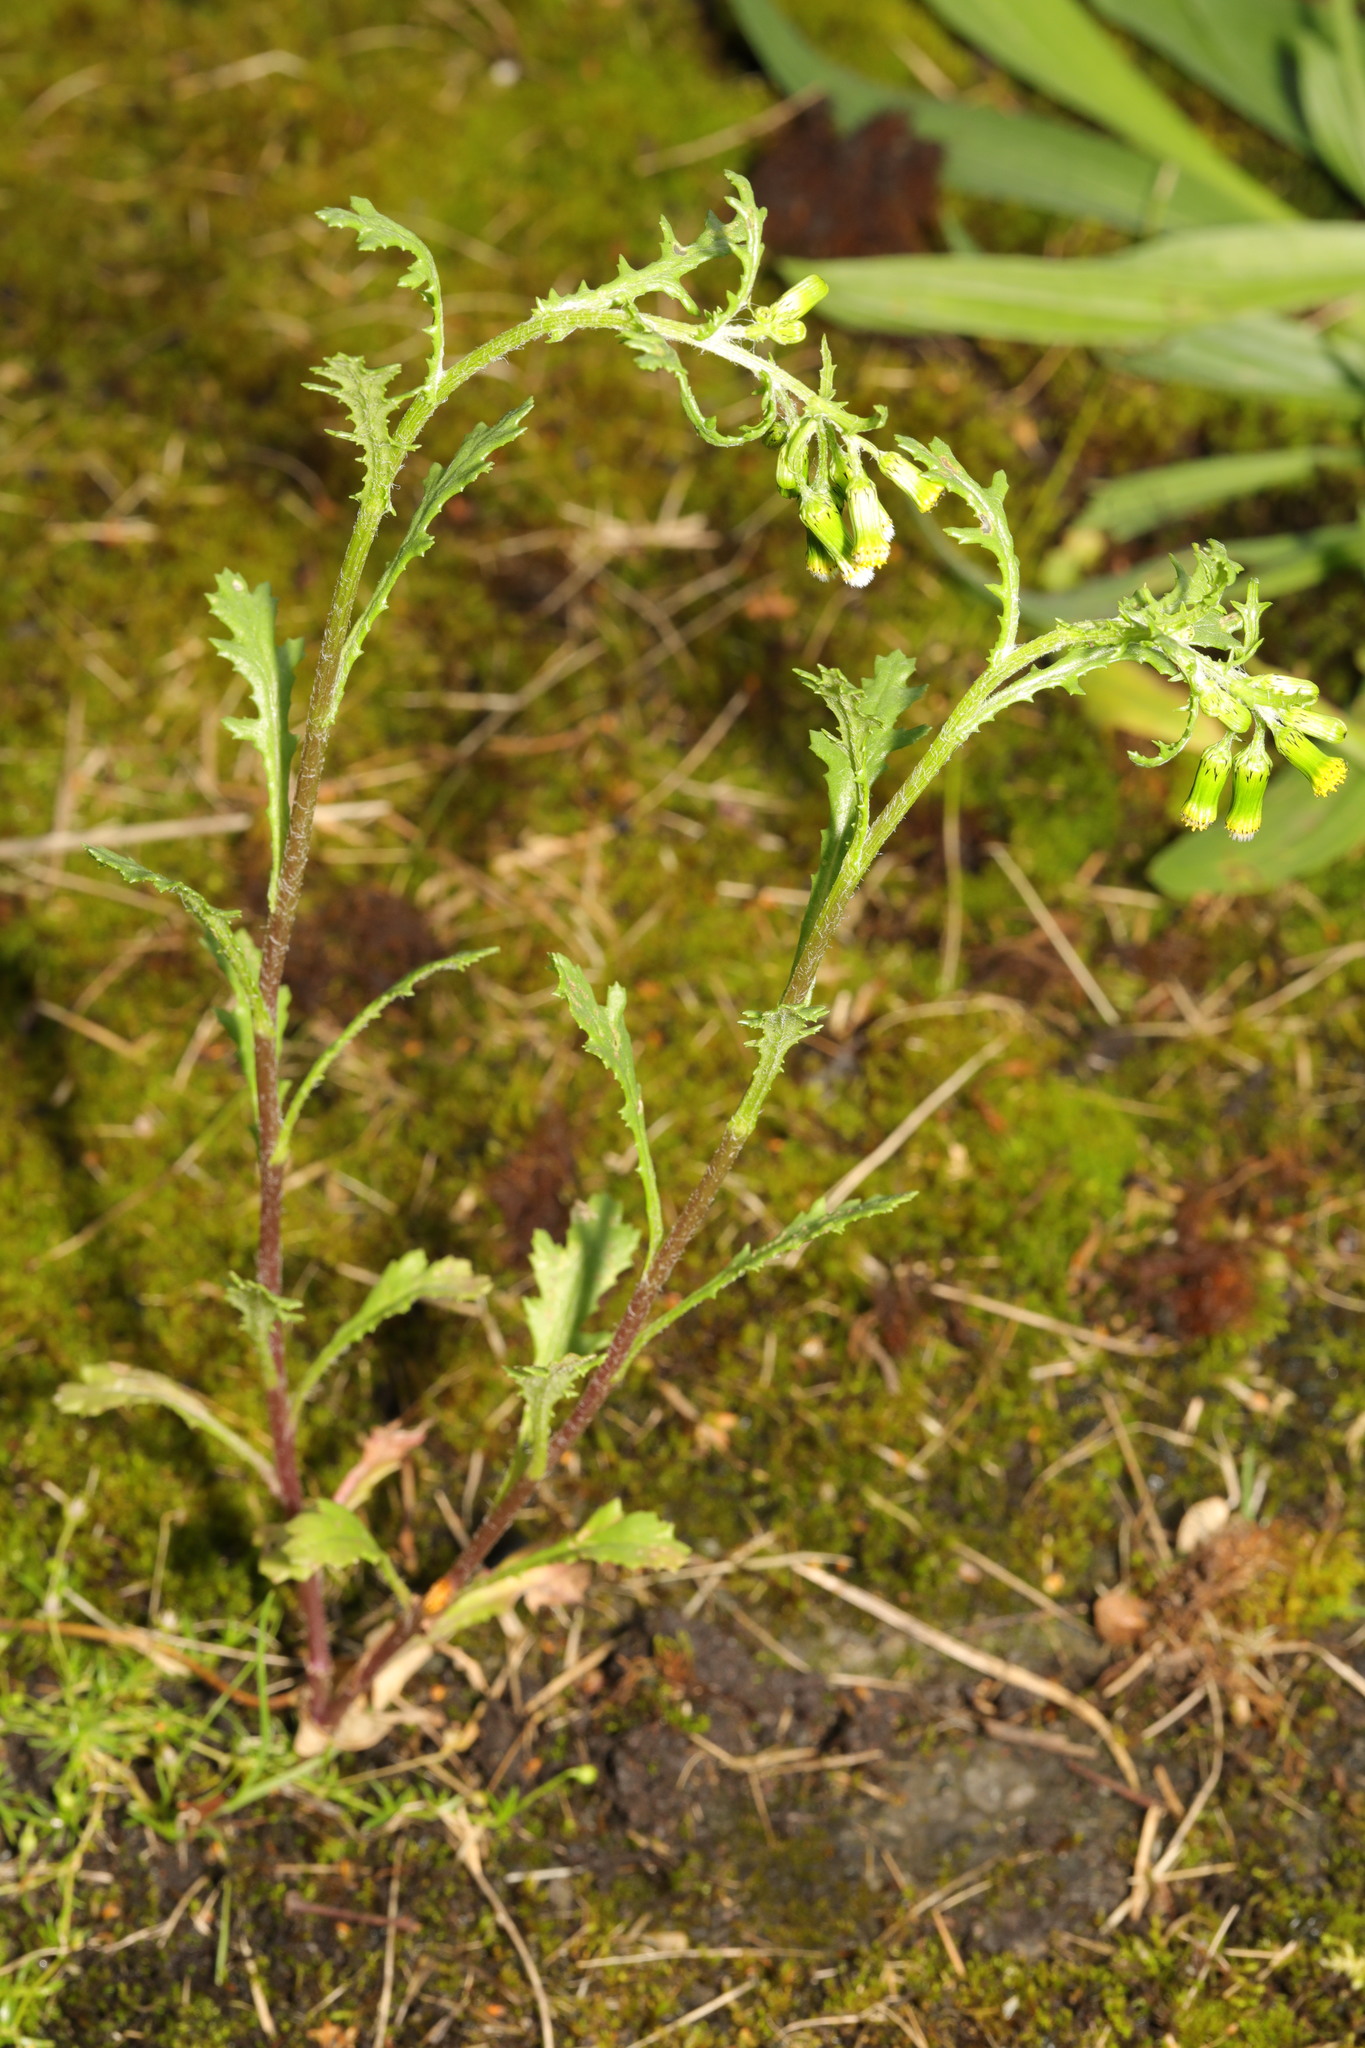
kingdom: Plantae
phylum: Tracheophyta
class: Magnoliopsida
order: Asterales
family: Asteraceae
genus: Senecio
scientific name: Senecio vulgaris
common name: Old-man-in-the-spring
